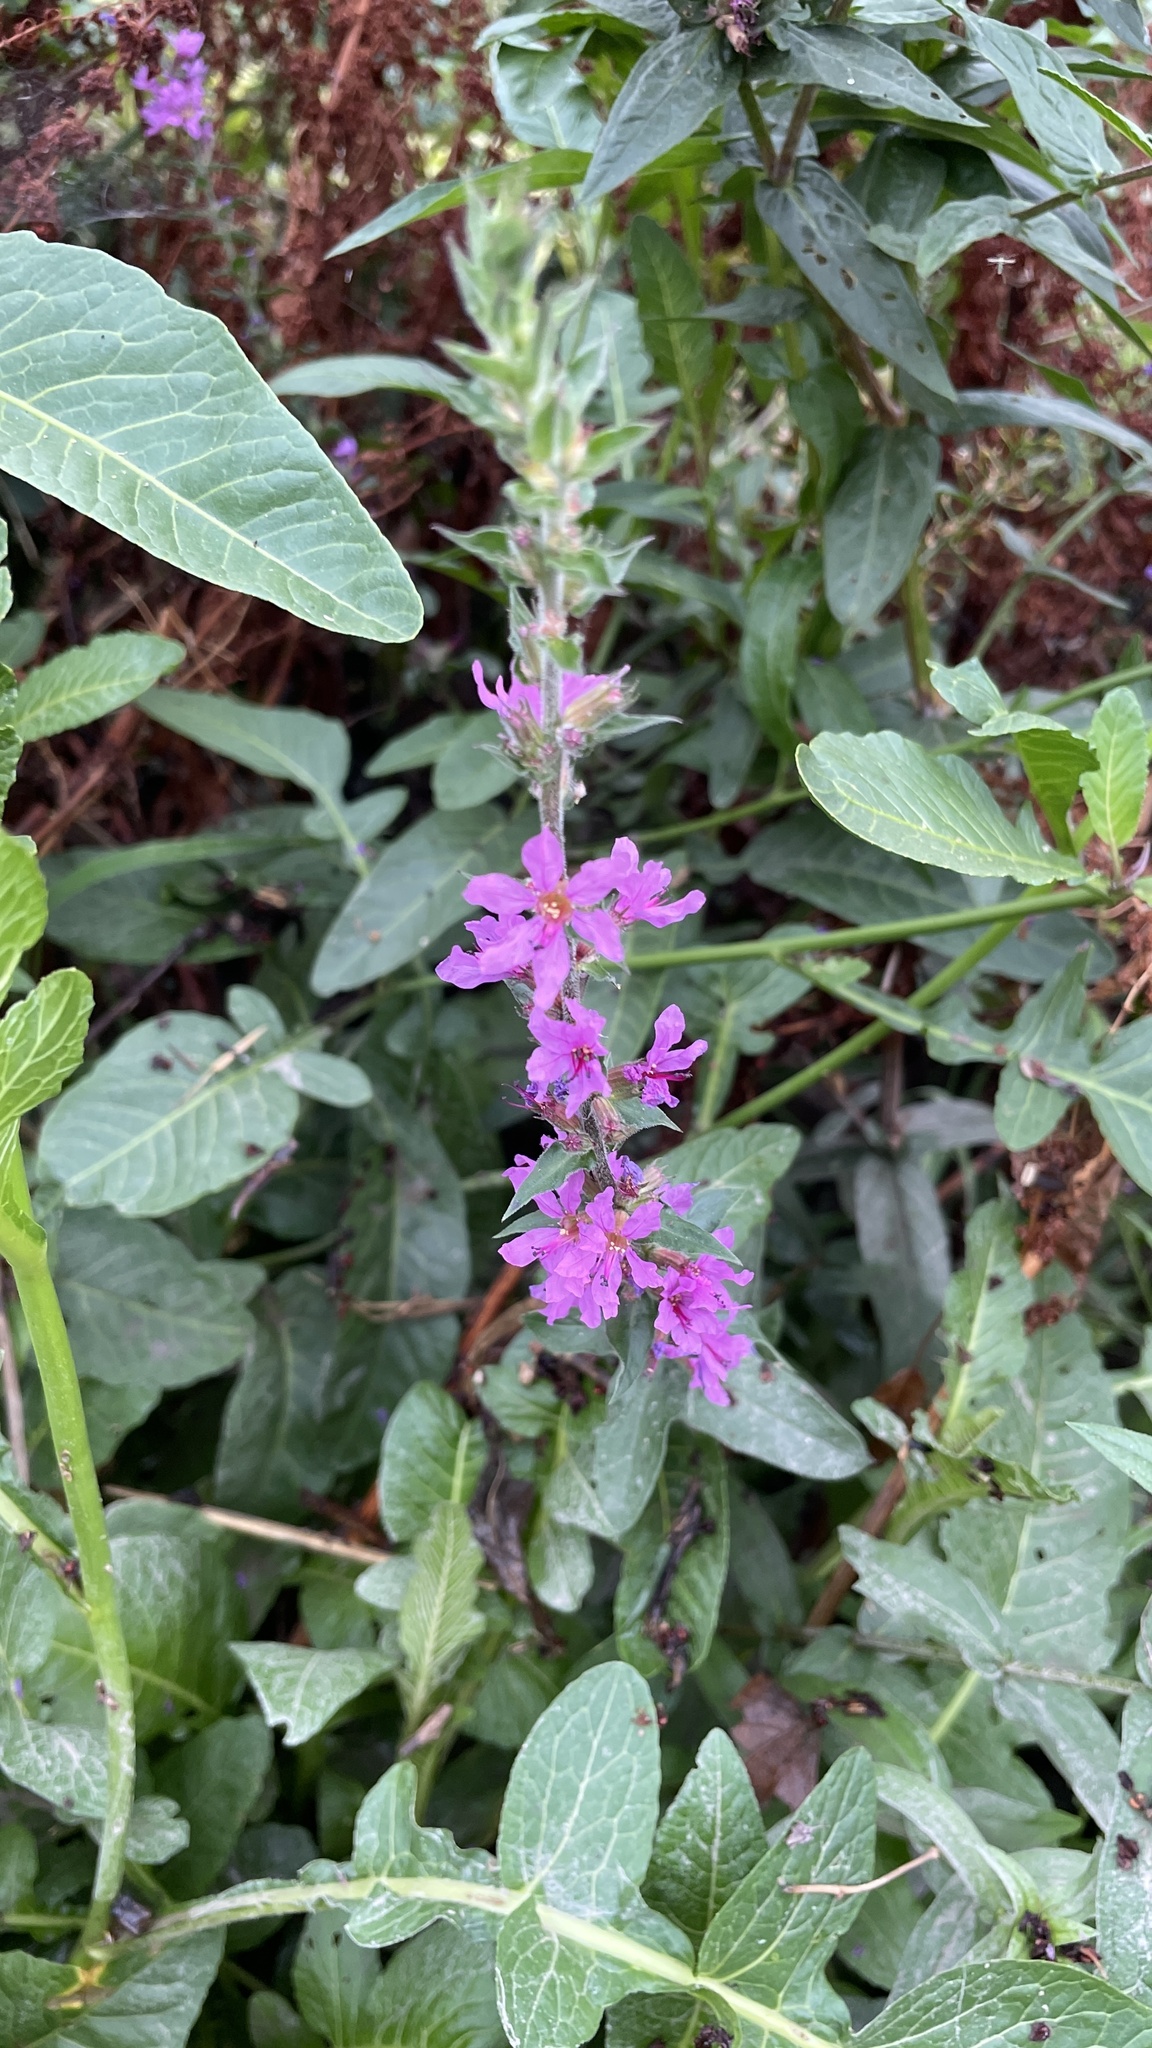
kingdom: Plantae
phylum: Tracheophyta
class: Magnoliopsida
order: Myrtales
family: Lythraceae
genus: Lythrum
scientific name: Lythrum salicaria
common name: Purple loosestrife
